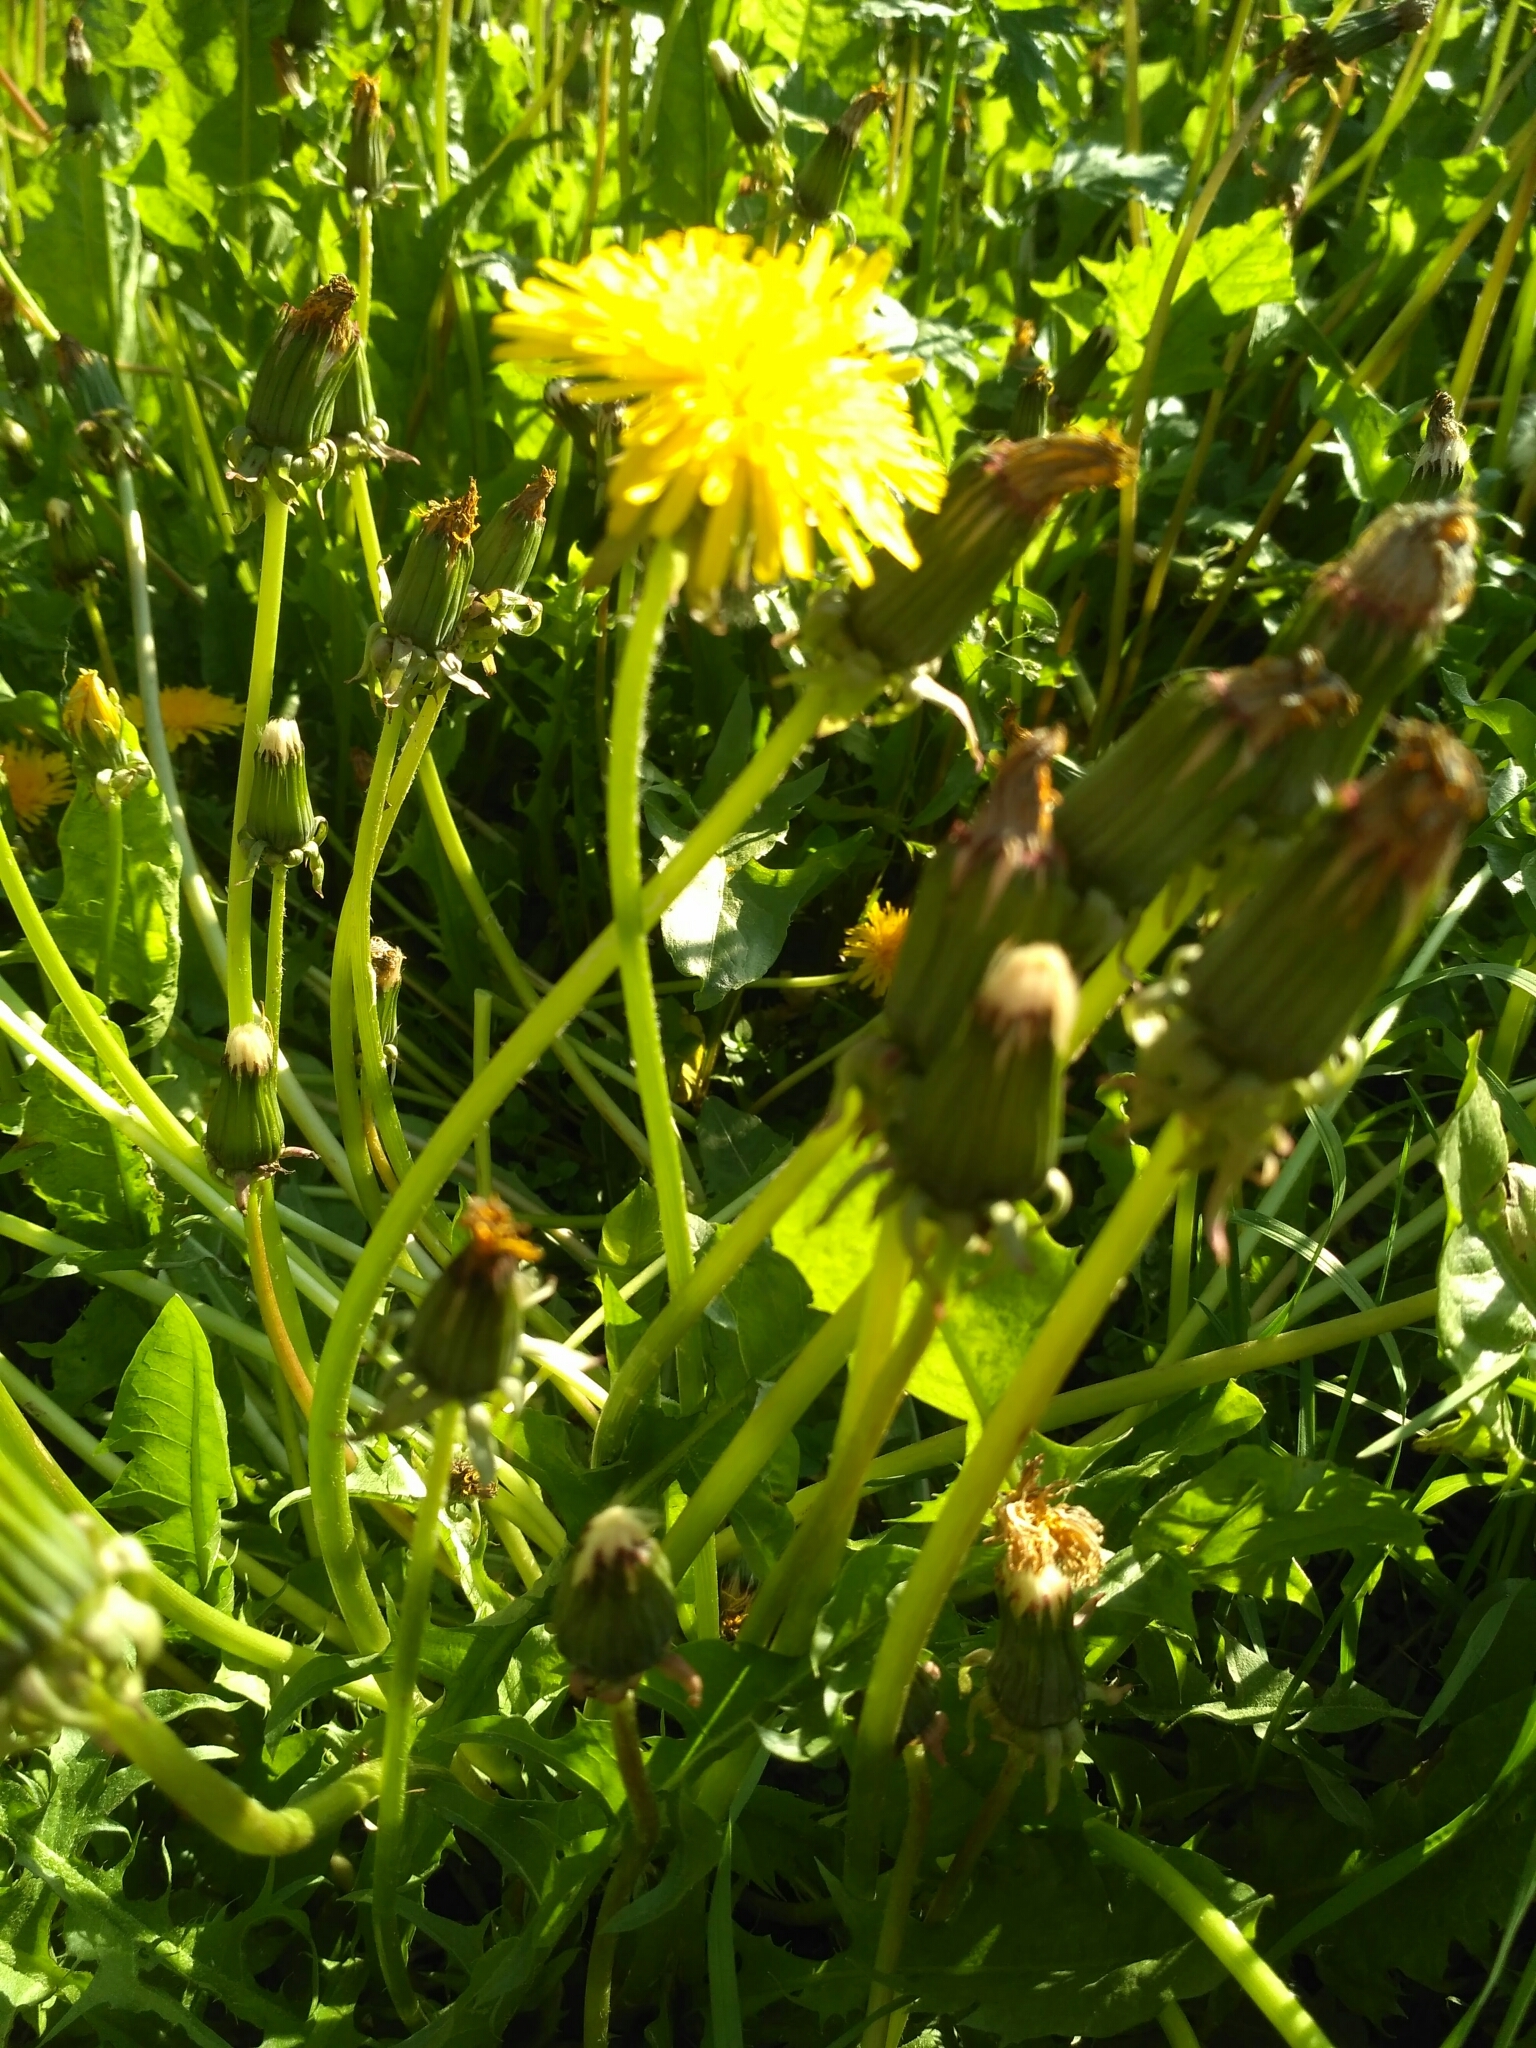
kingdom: Plantae
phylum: Tracheophyta
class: Magnoliopsida
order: Asterales
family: Asteraceae
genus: Taraxacum
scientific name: Taraxacum officinale
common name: Common dandelion
